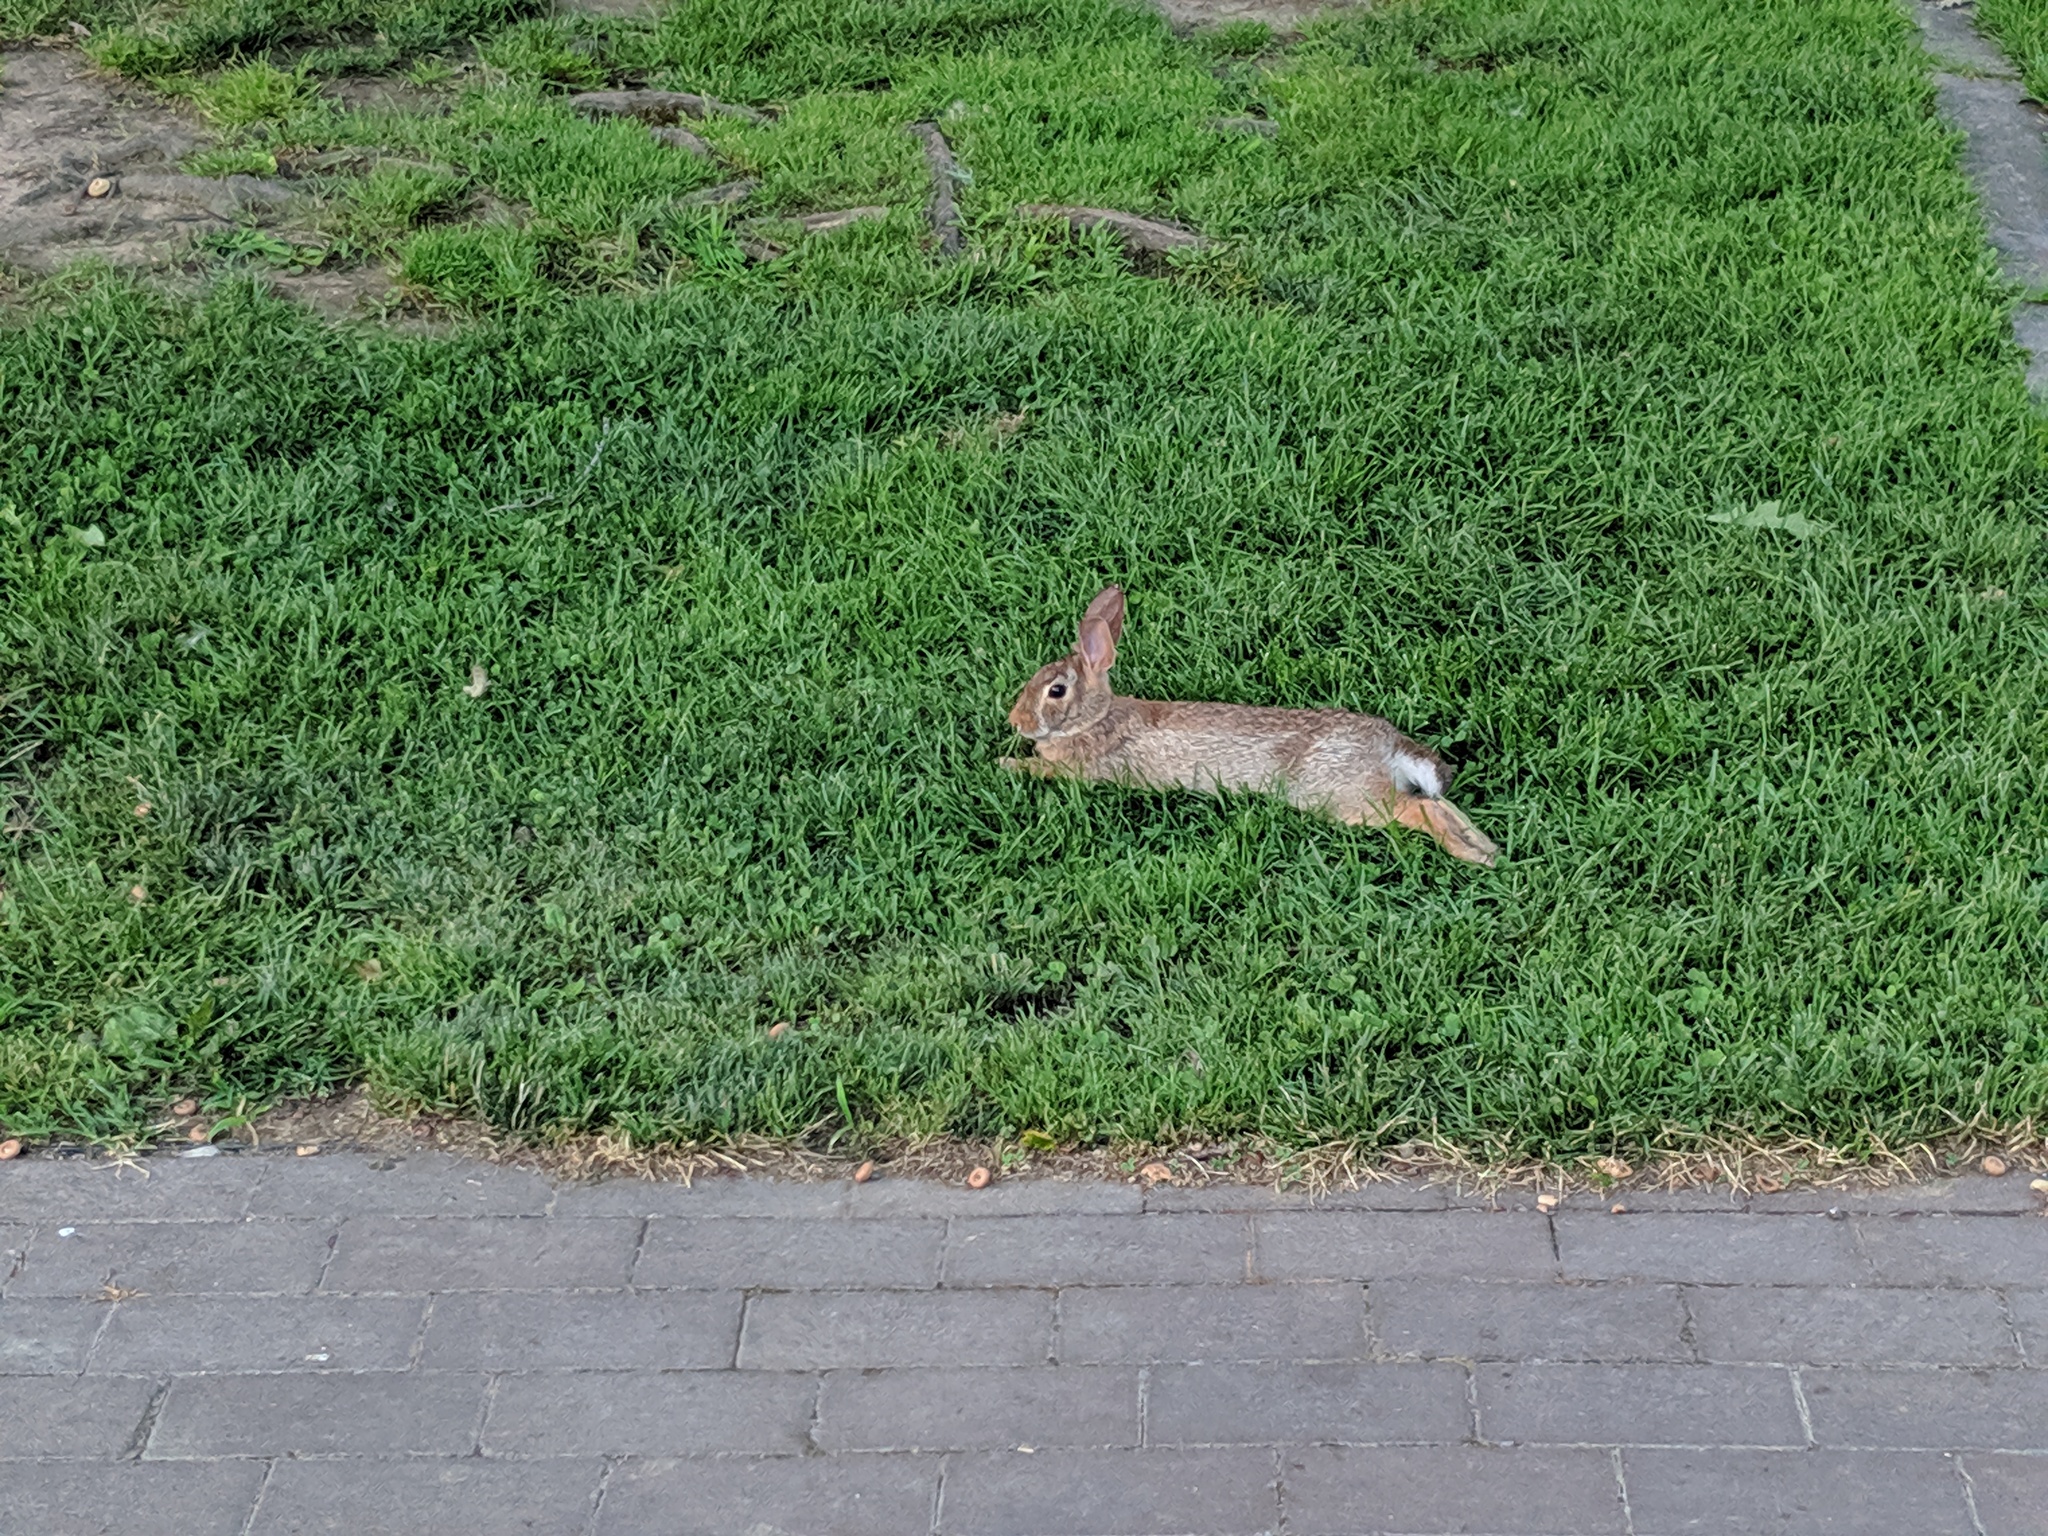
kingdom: Animalia
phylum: Chordata
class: Mammalia
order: Lagomorpha
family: Leporidae
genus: Sylvilagus
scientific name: Sylvilagus floridanus
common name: Eastern cottontail
